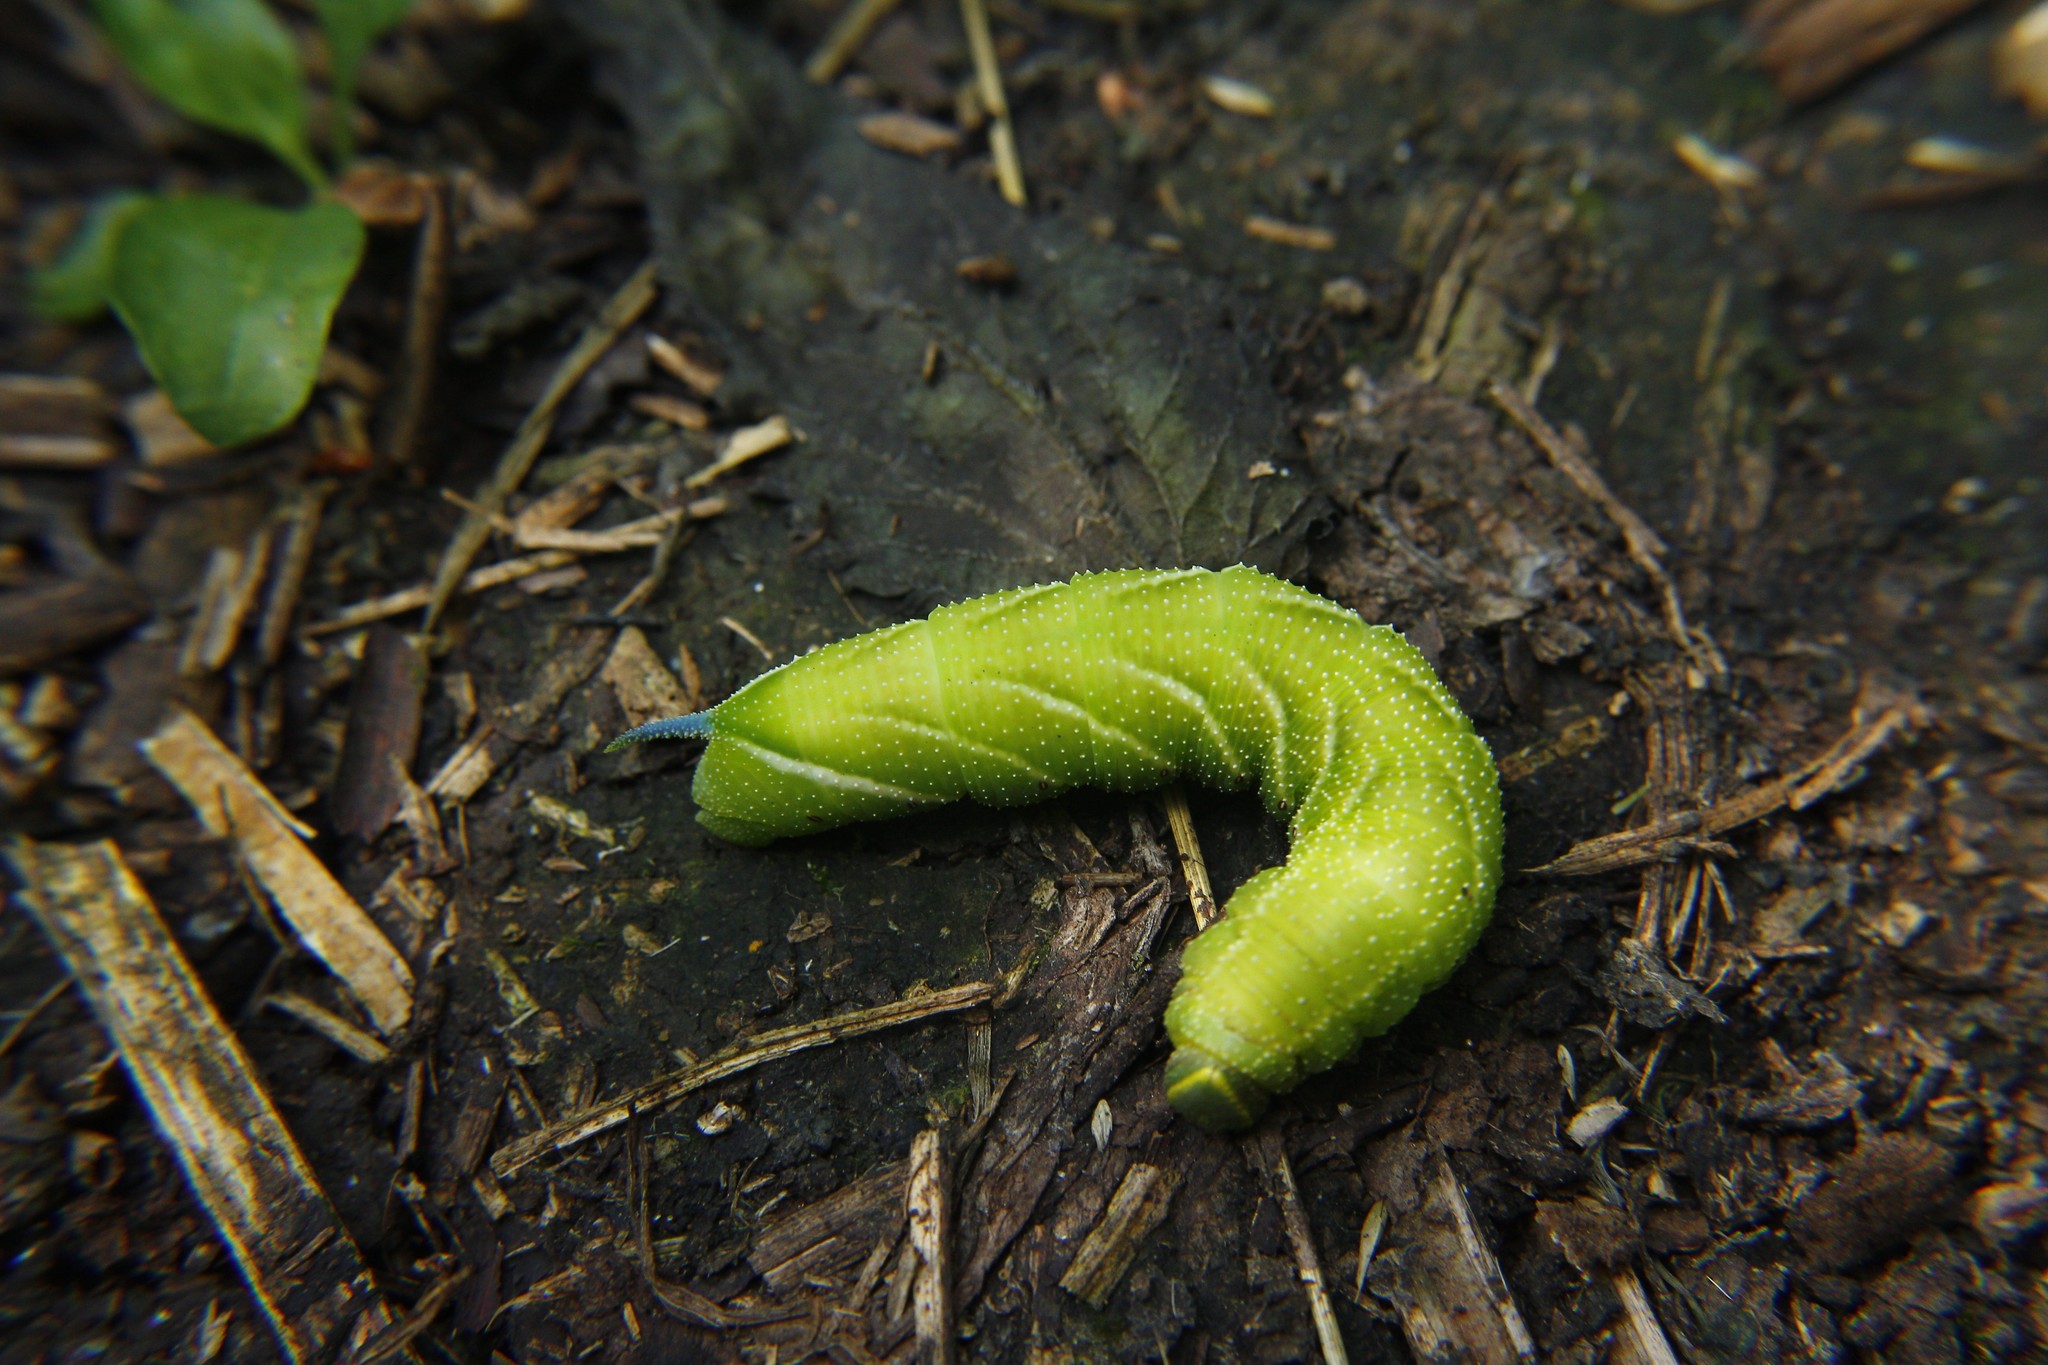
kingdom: Animalia
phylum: Arthropoda
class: Insecta
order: Lepidoptera
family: Sphingidae
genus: Smerinthus
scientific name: Smerinthus ocellata
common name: Eyed hawk-moth
